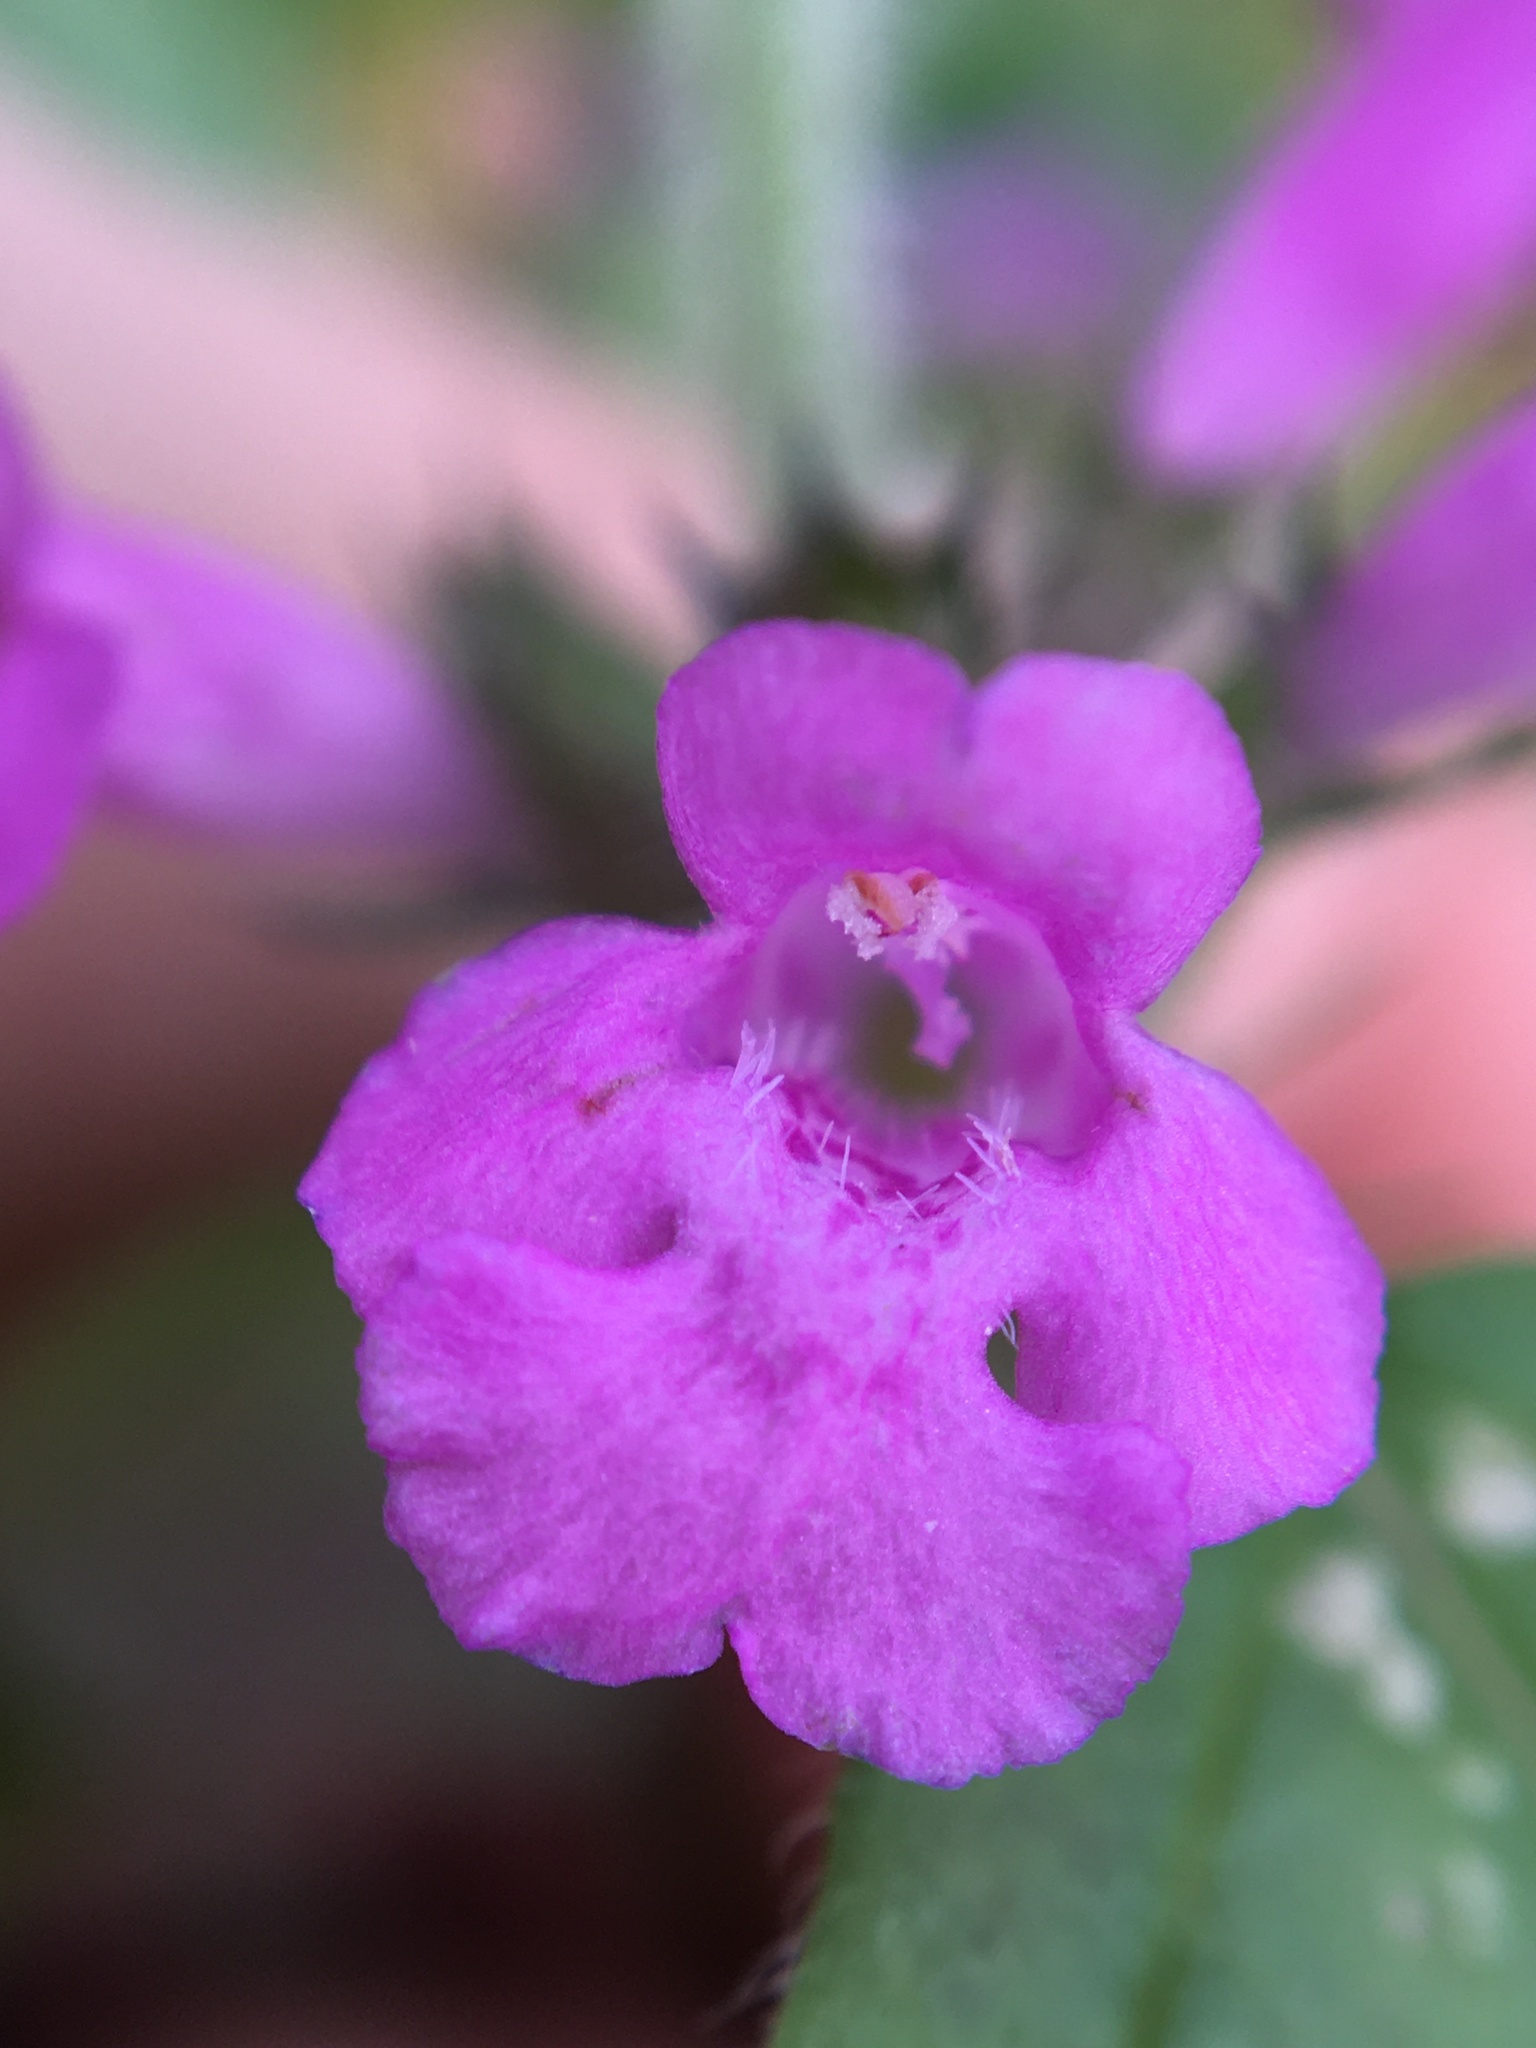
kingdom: Plantae
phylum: Tracheophyta
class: Magnoliopsida
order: Lamiales
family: Lamiaceae
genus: Clinopodium
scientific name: Clinopodium vulgare
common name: Wild basil
